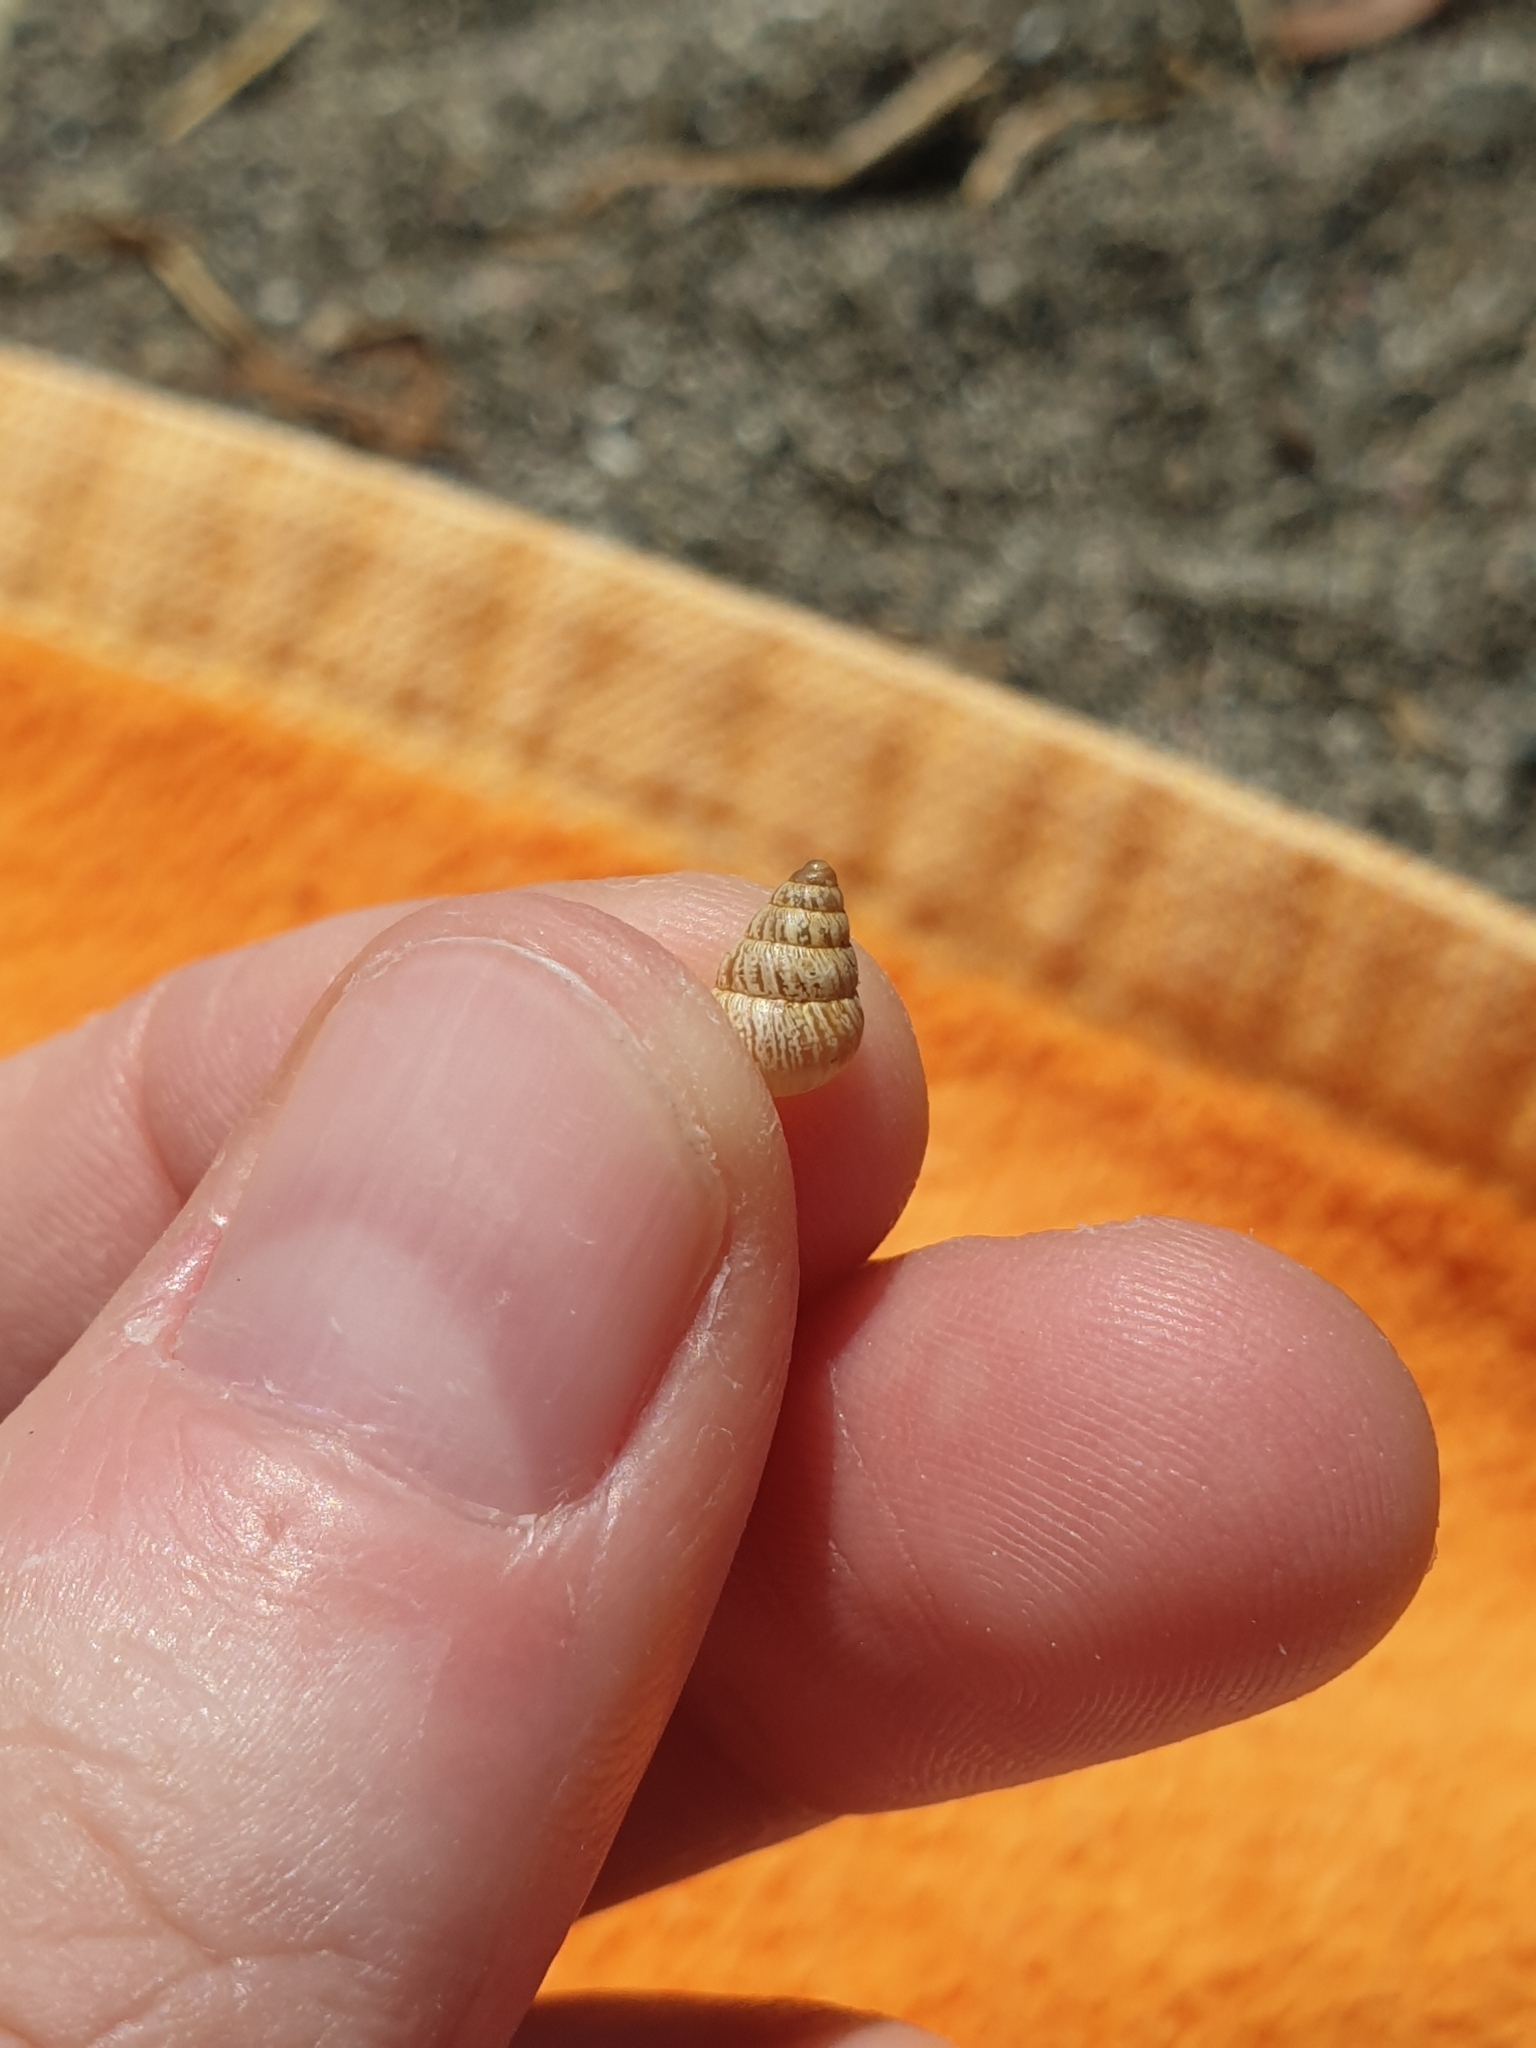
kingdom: Animalia
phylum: Mollusca
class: Gastropoda
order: Stylommatophora
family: Geomitridae
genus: Cochlicella
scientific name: Cochlicella barbara
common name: Potbellied helicellid
